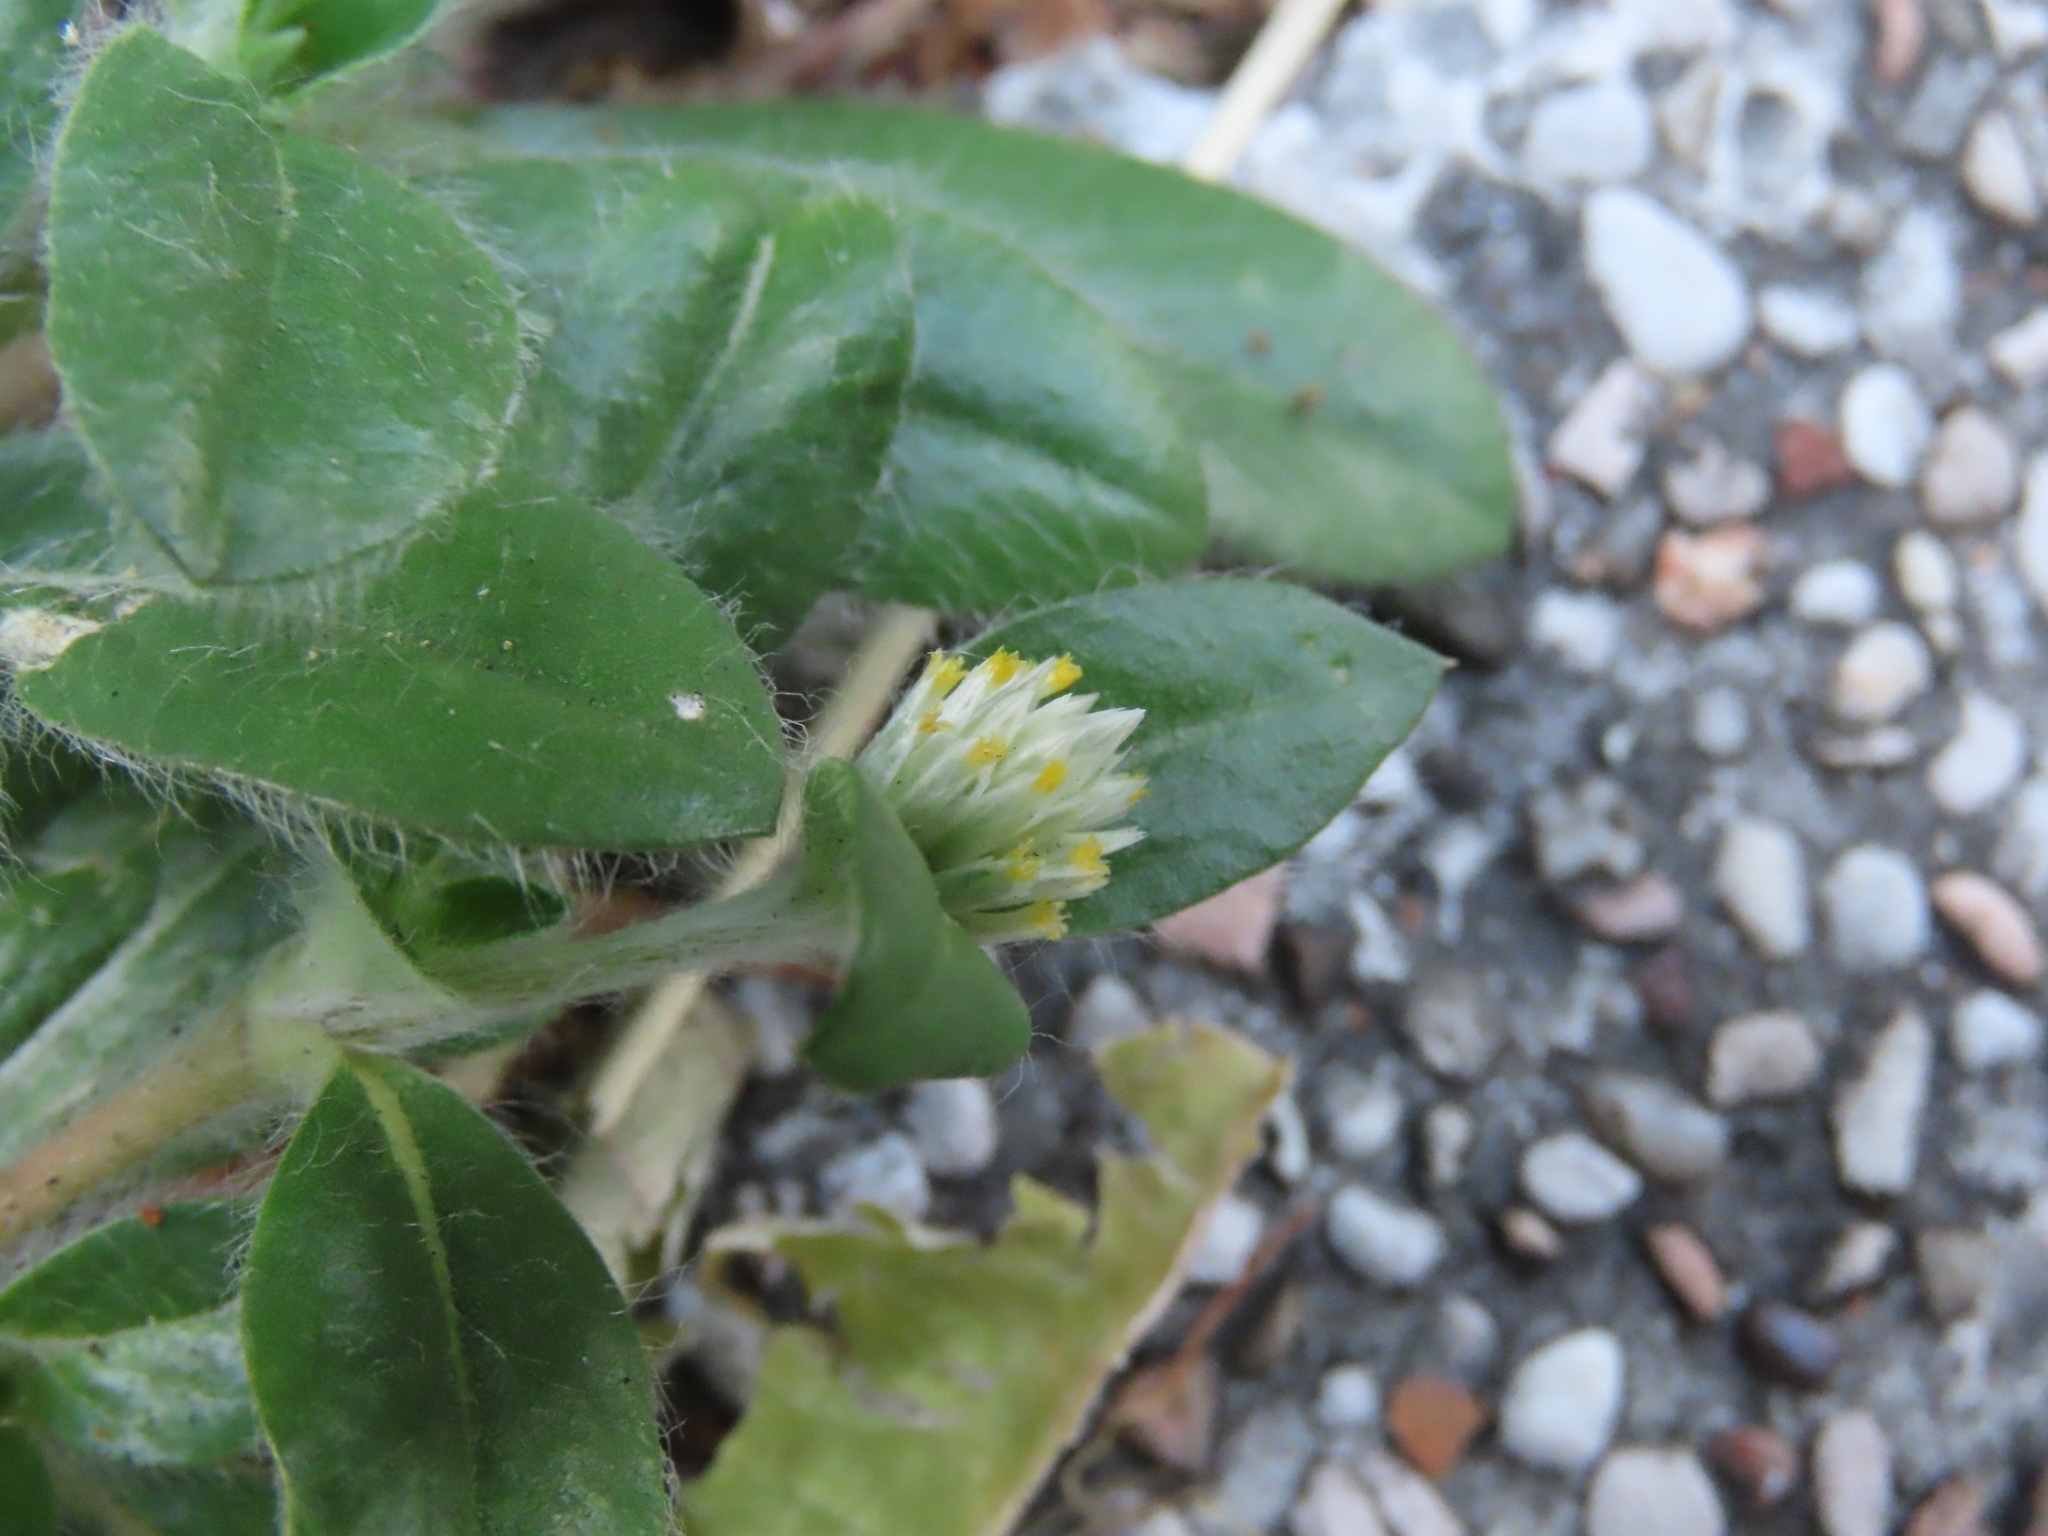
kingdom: Plantae
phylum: Tracheophyta
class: Magnoliopsida
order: Caryophyllales
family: Amaranthaceae
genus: Gomphrena
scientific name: Gomphrena celosioides
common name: Gomphrena-weed
